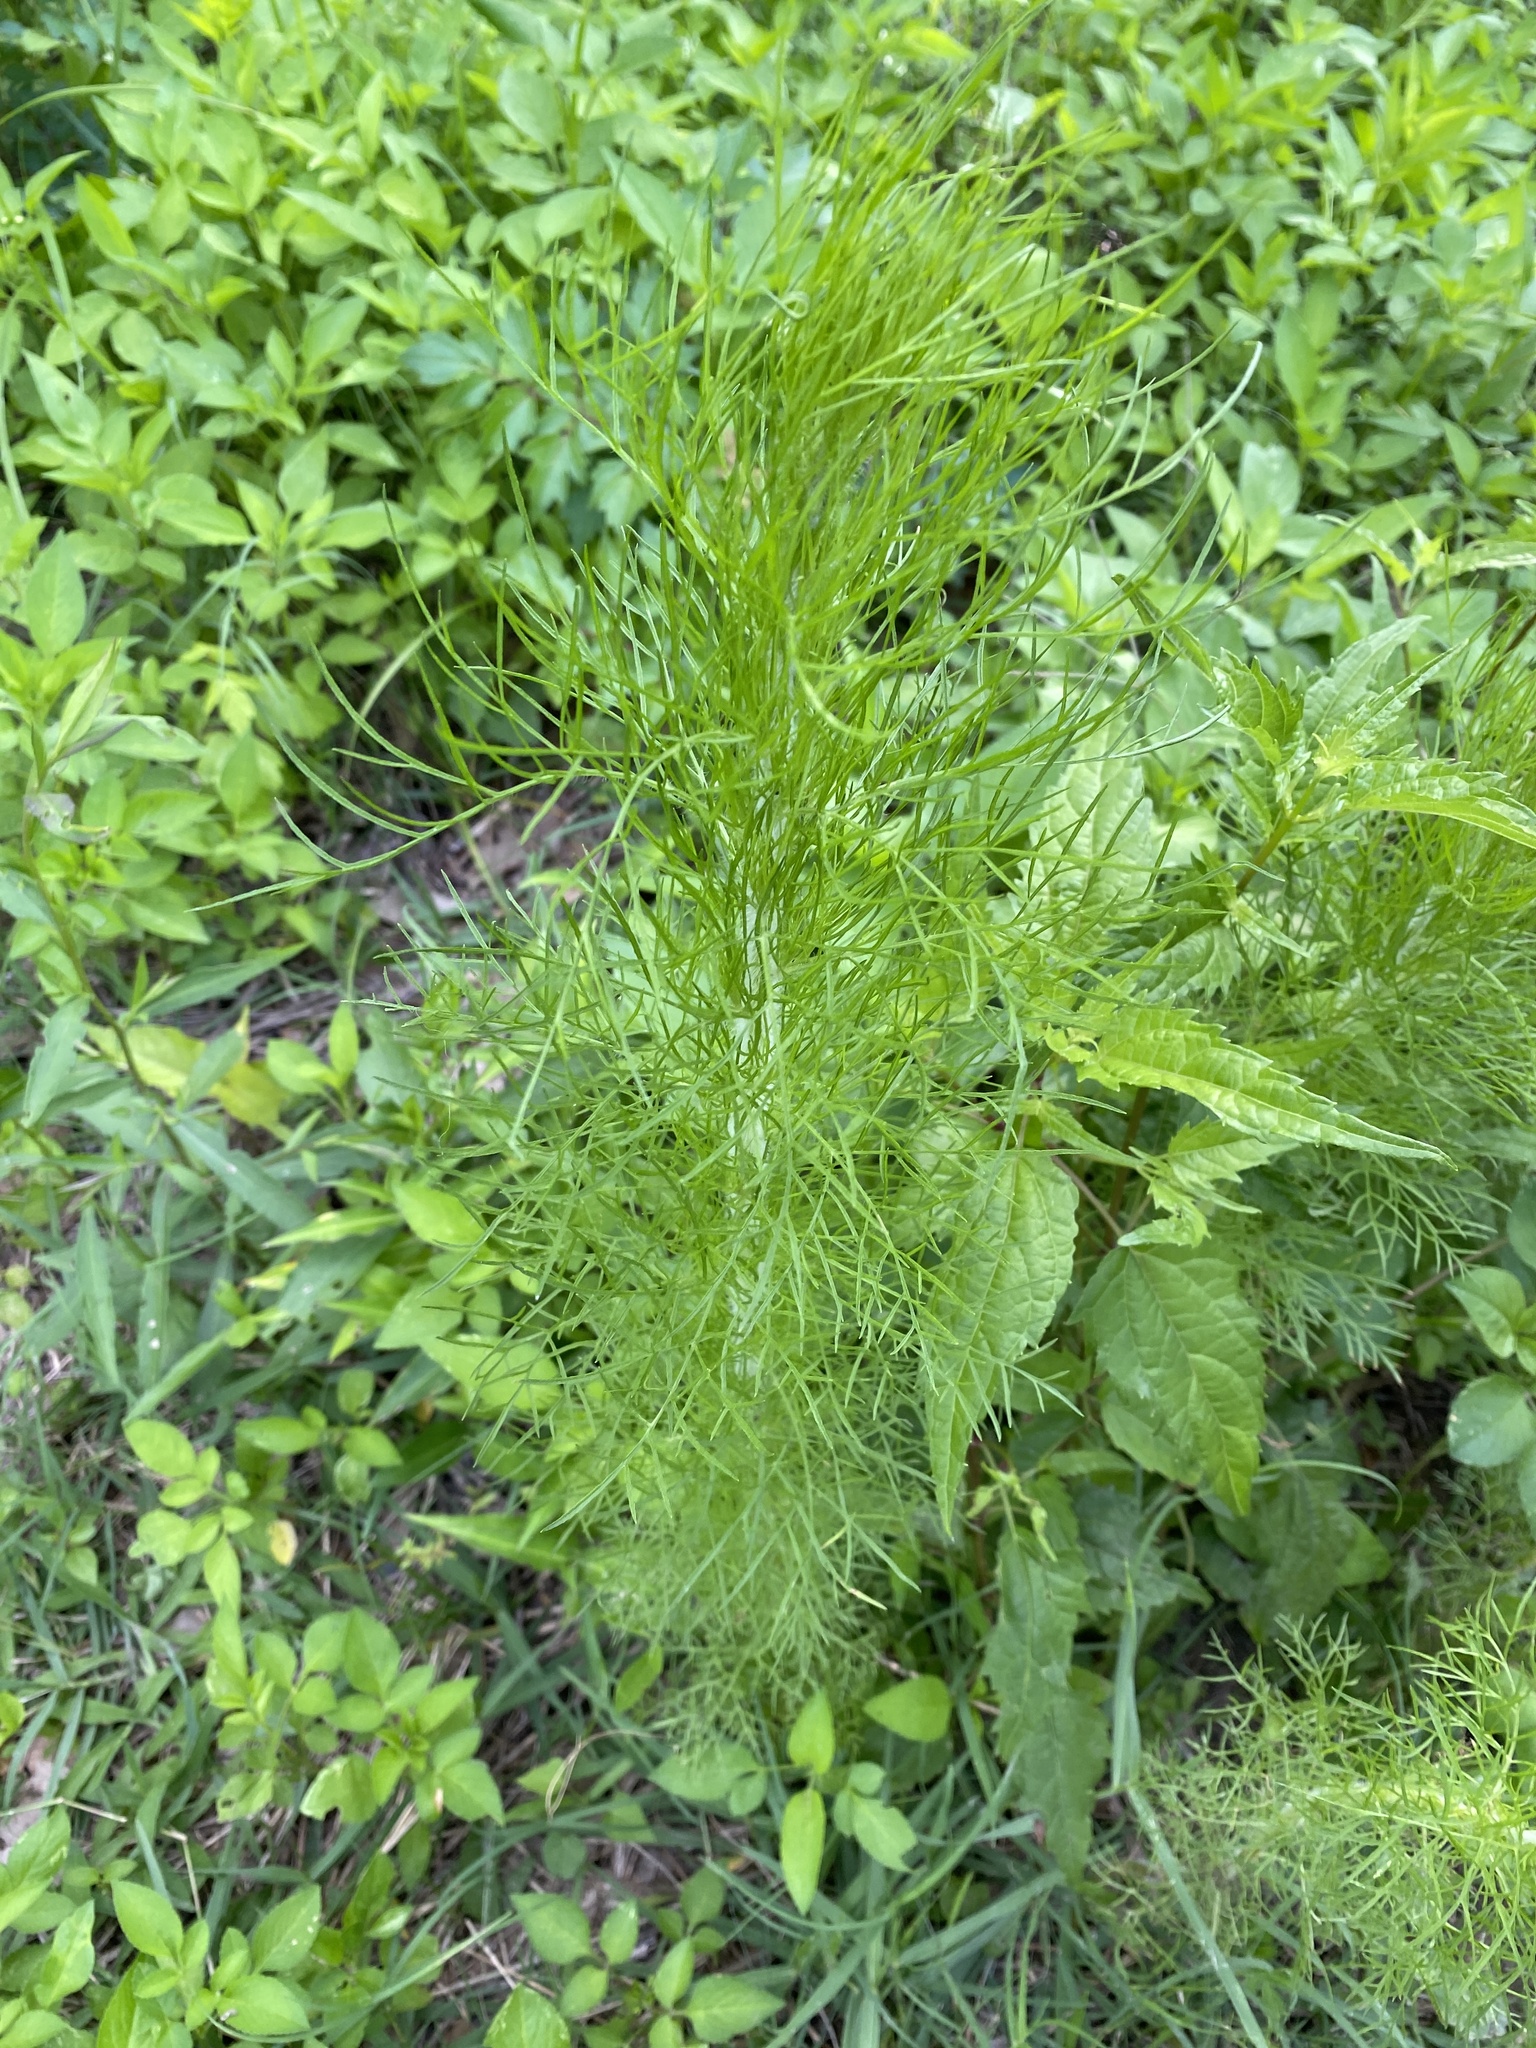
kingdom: Plantae
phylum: Tracheophyta
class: Magnoliopsida
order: Asterales
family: Asteraceae
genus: Eupatorium
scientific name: Eupatorium capillifolium
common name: Dog-fennel
